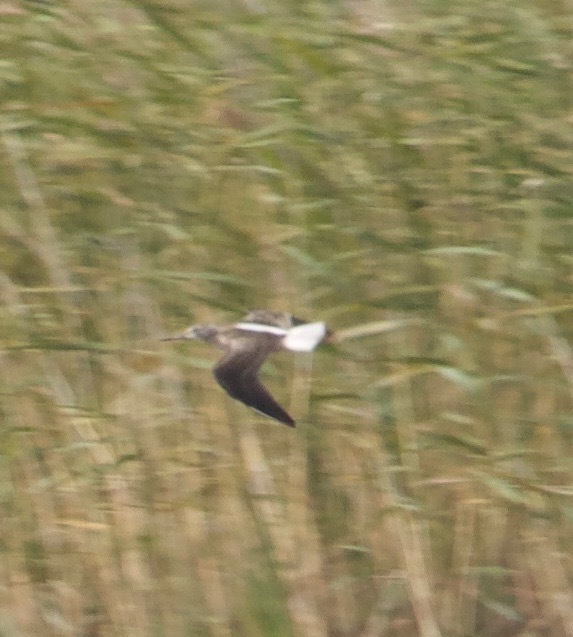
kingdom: Animalia
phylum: Chordata
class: Aves
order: Charadriiformes
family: Scolopacidae
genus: Tringa
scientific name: Tringa nebularia
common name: Common greenshank
